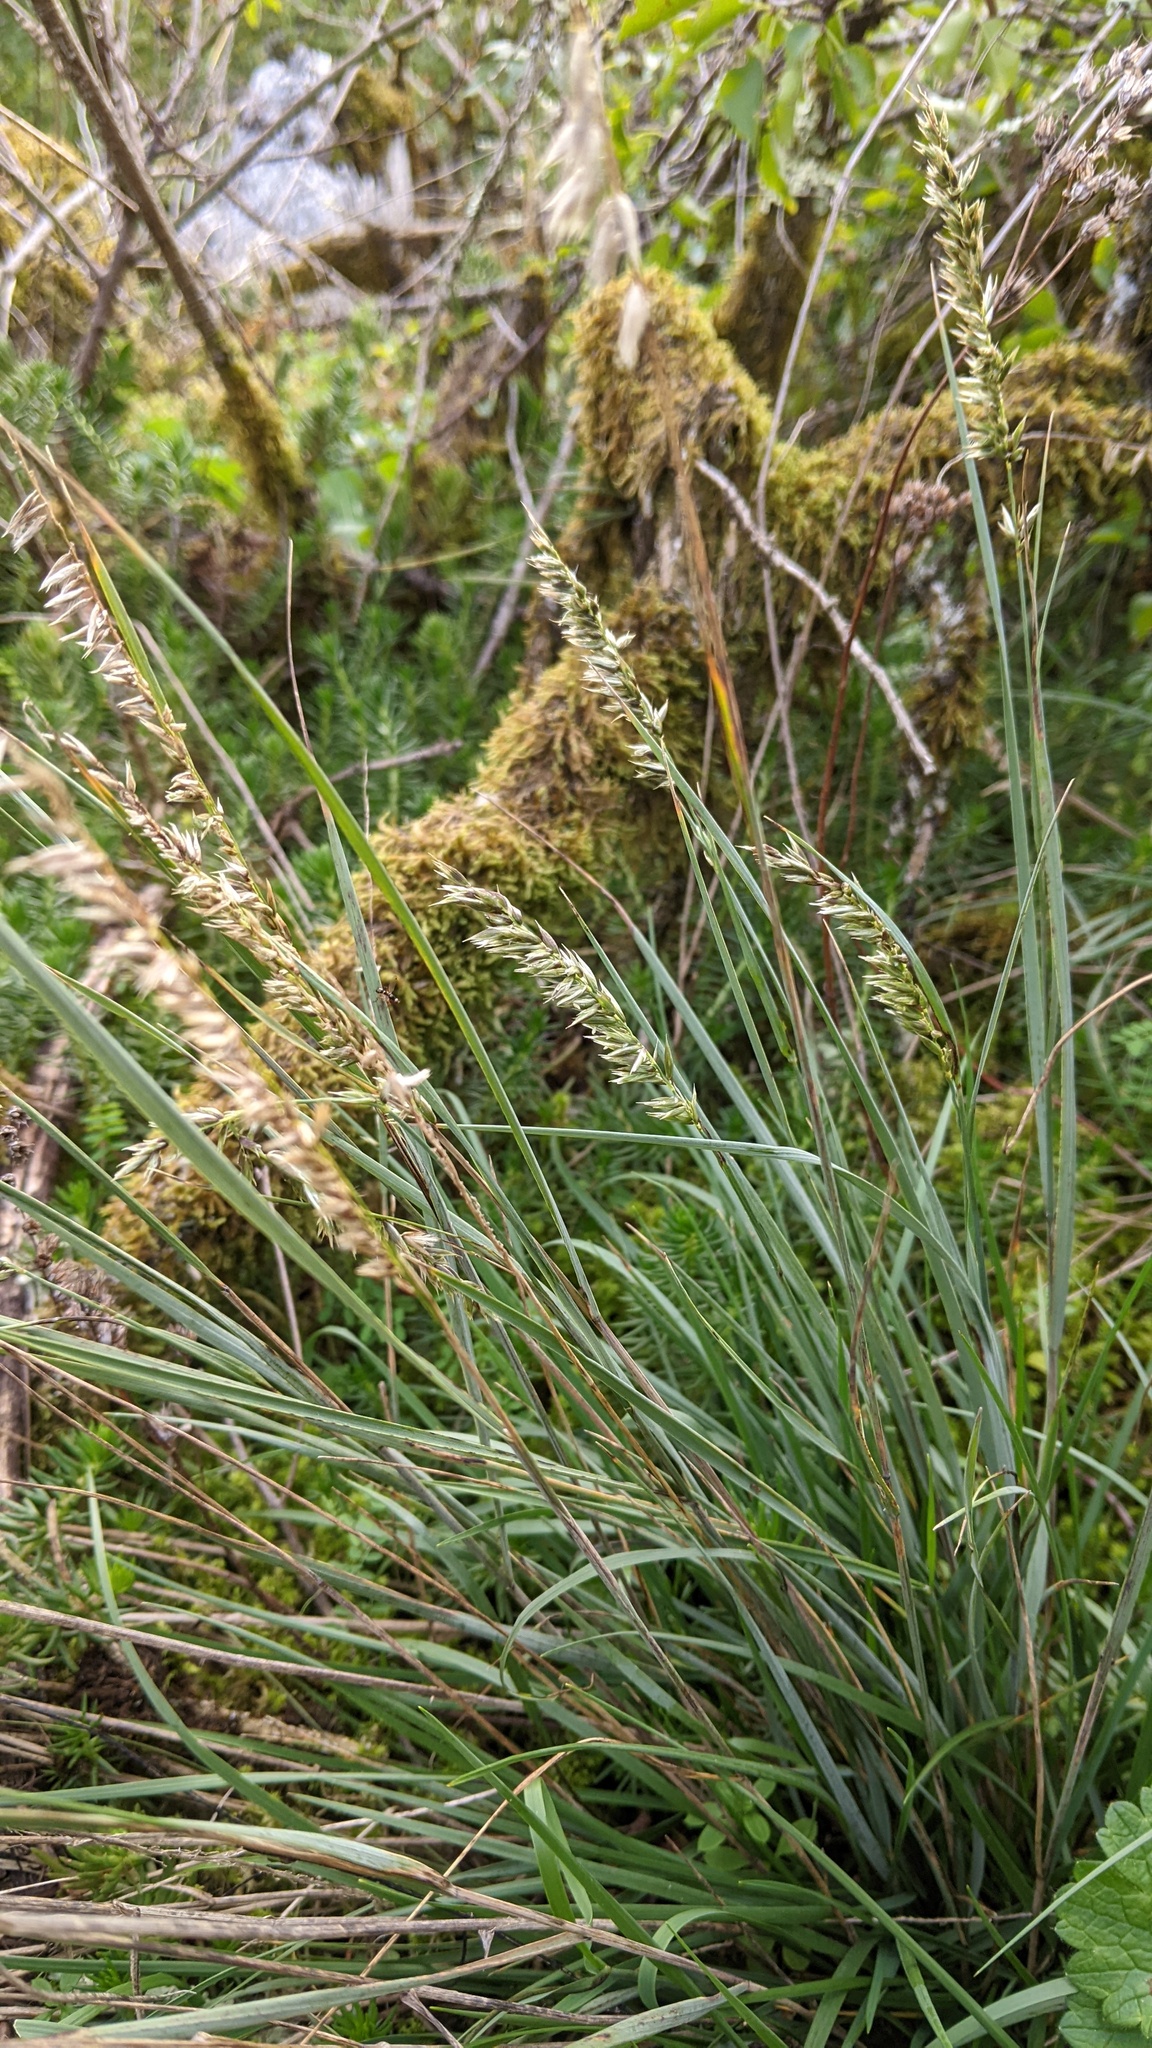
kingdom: Plantae
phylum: Tracheophyta
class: Liliopsida
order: Poales
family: Poaceae
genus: Melica
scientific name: Melica ciliata
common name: Hairy melicgrass
